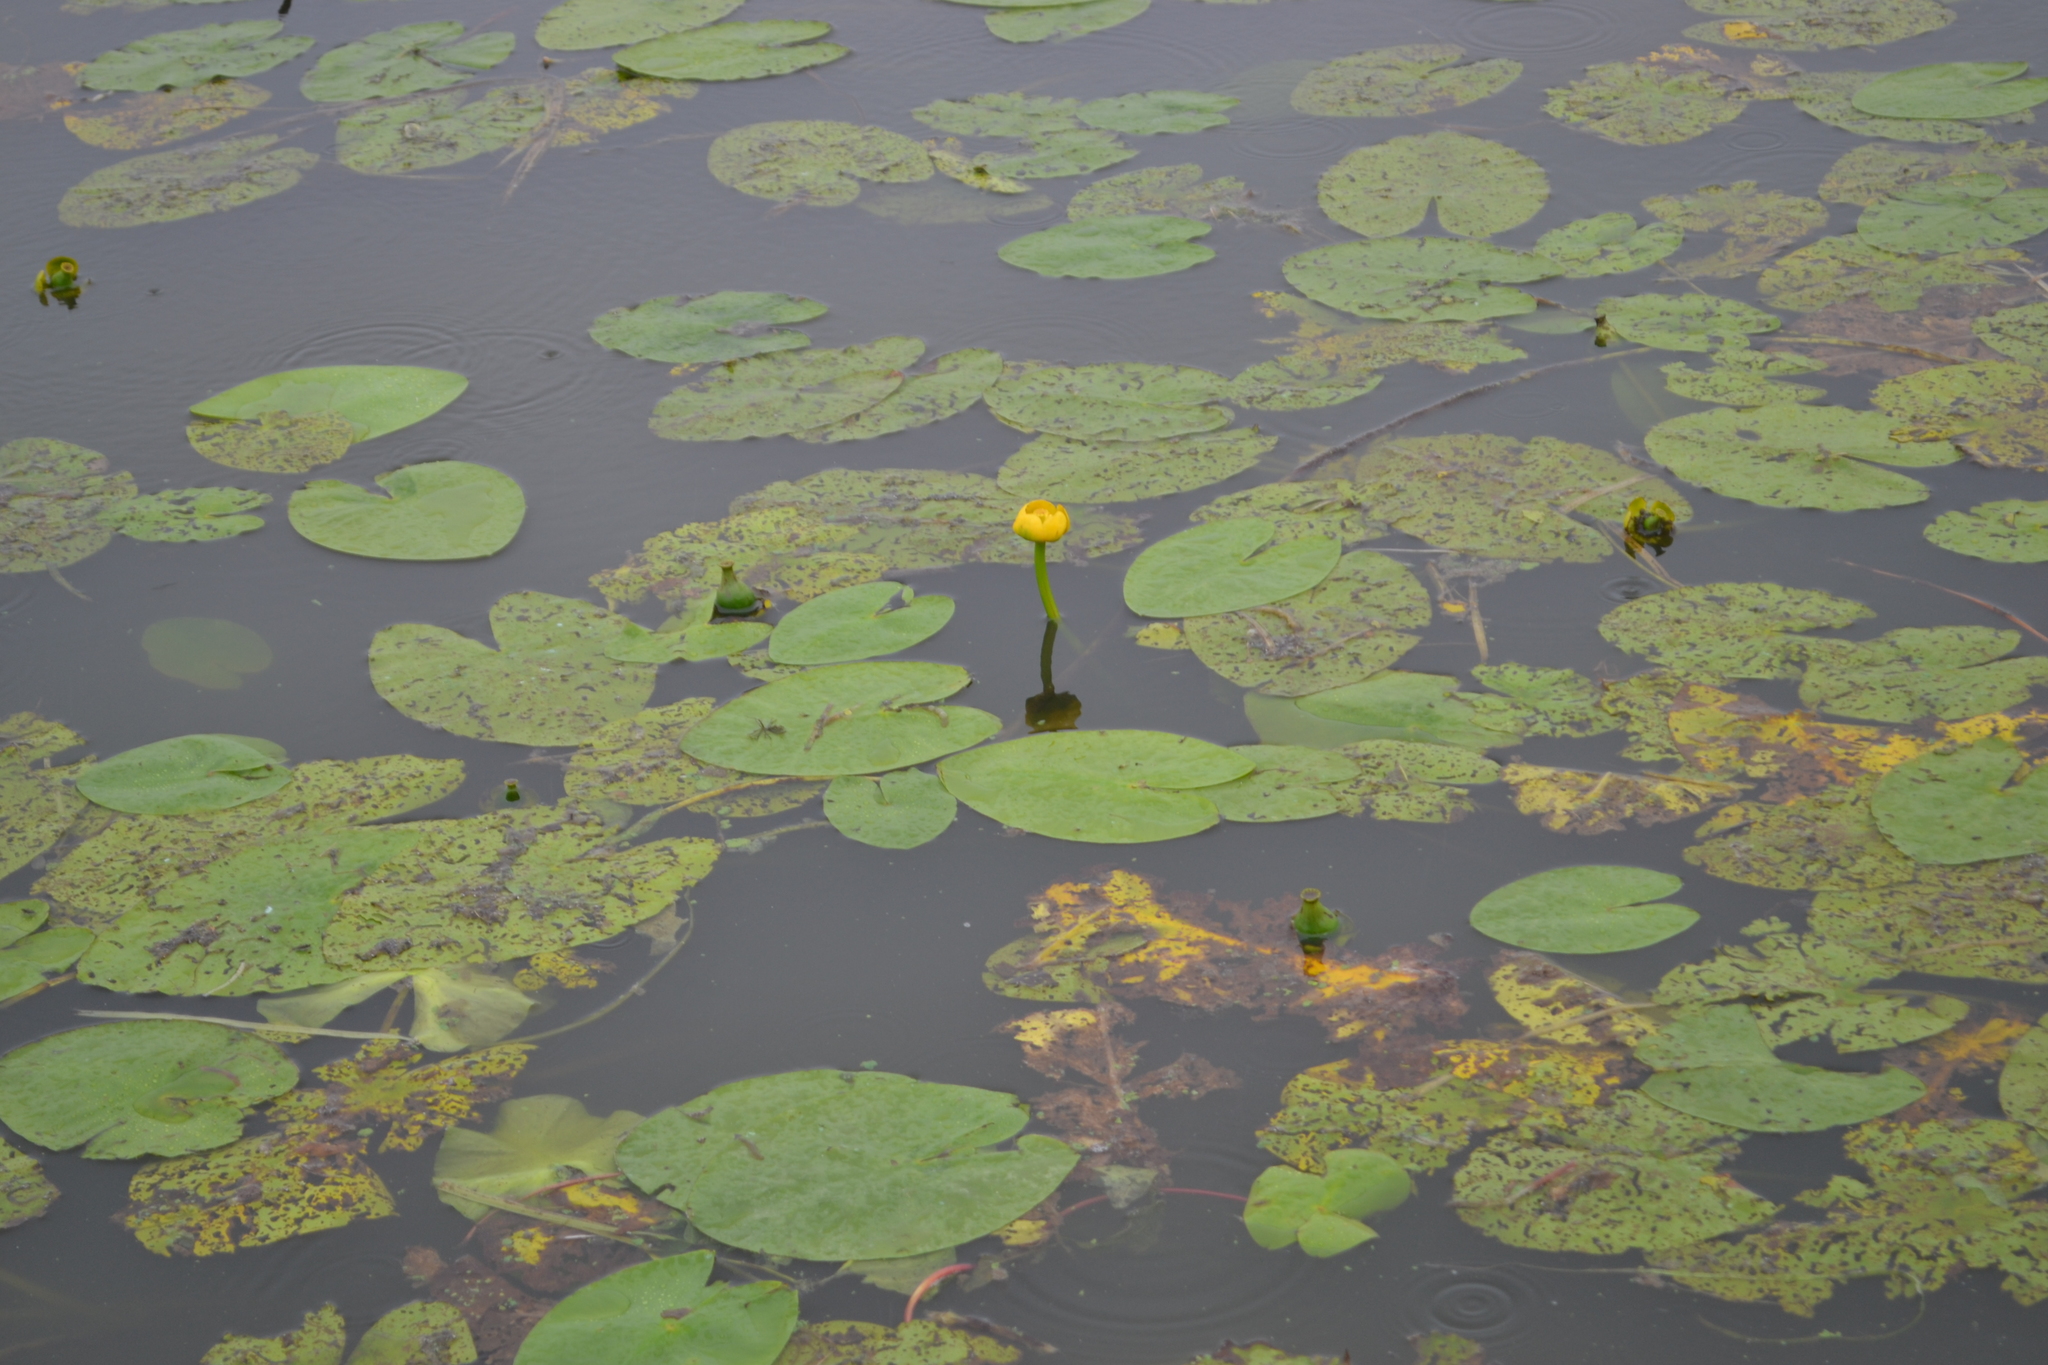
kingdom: Plantae
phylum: Tracheophyta
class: Magnoliopsida
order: Nymphaeales
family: Nymphaeaceae
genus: Nuphar
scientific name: Nuphar lutea
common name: Yellow water-lily
